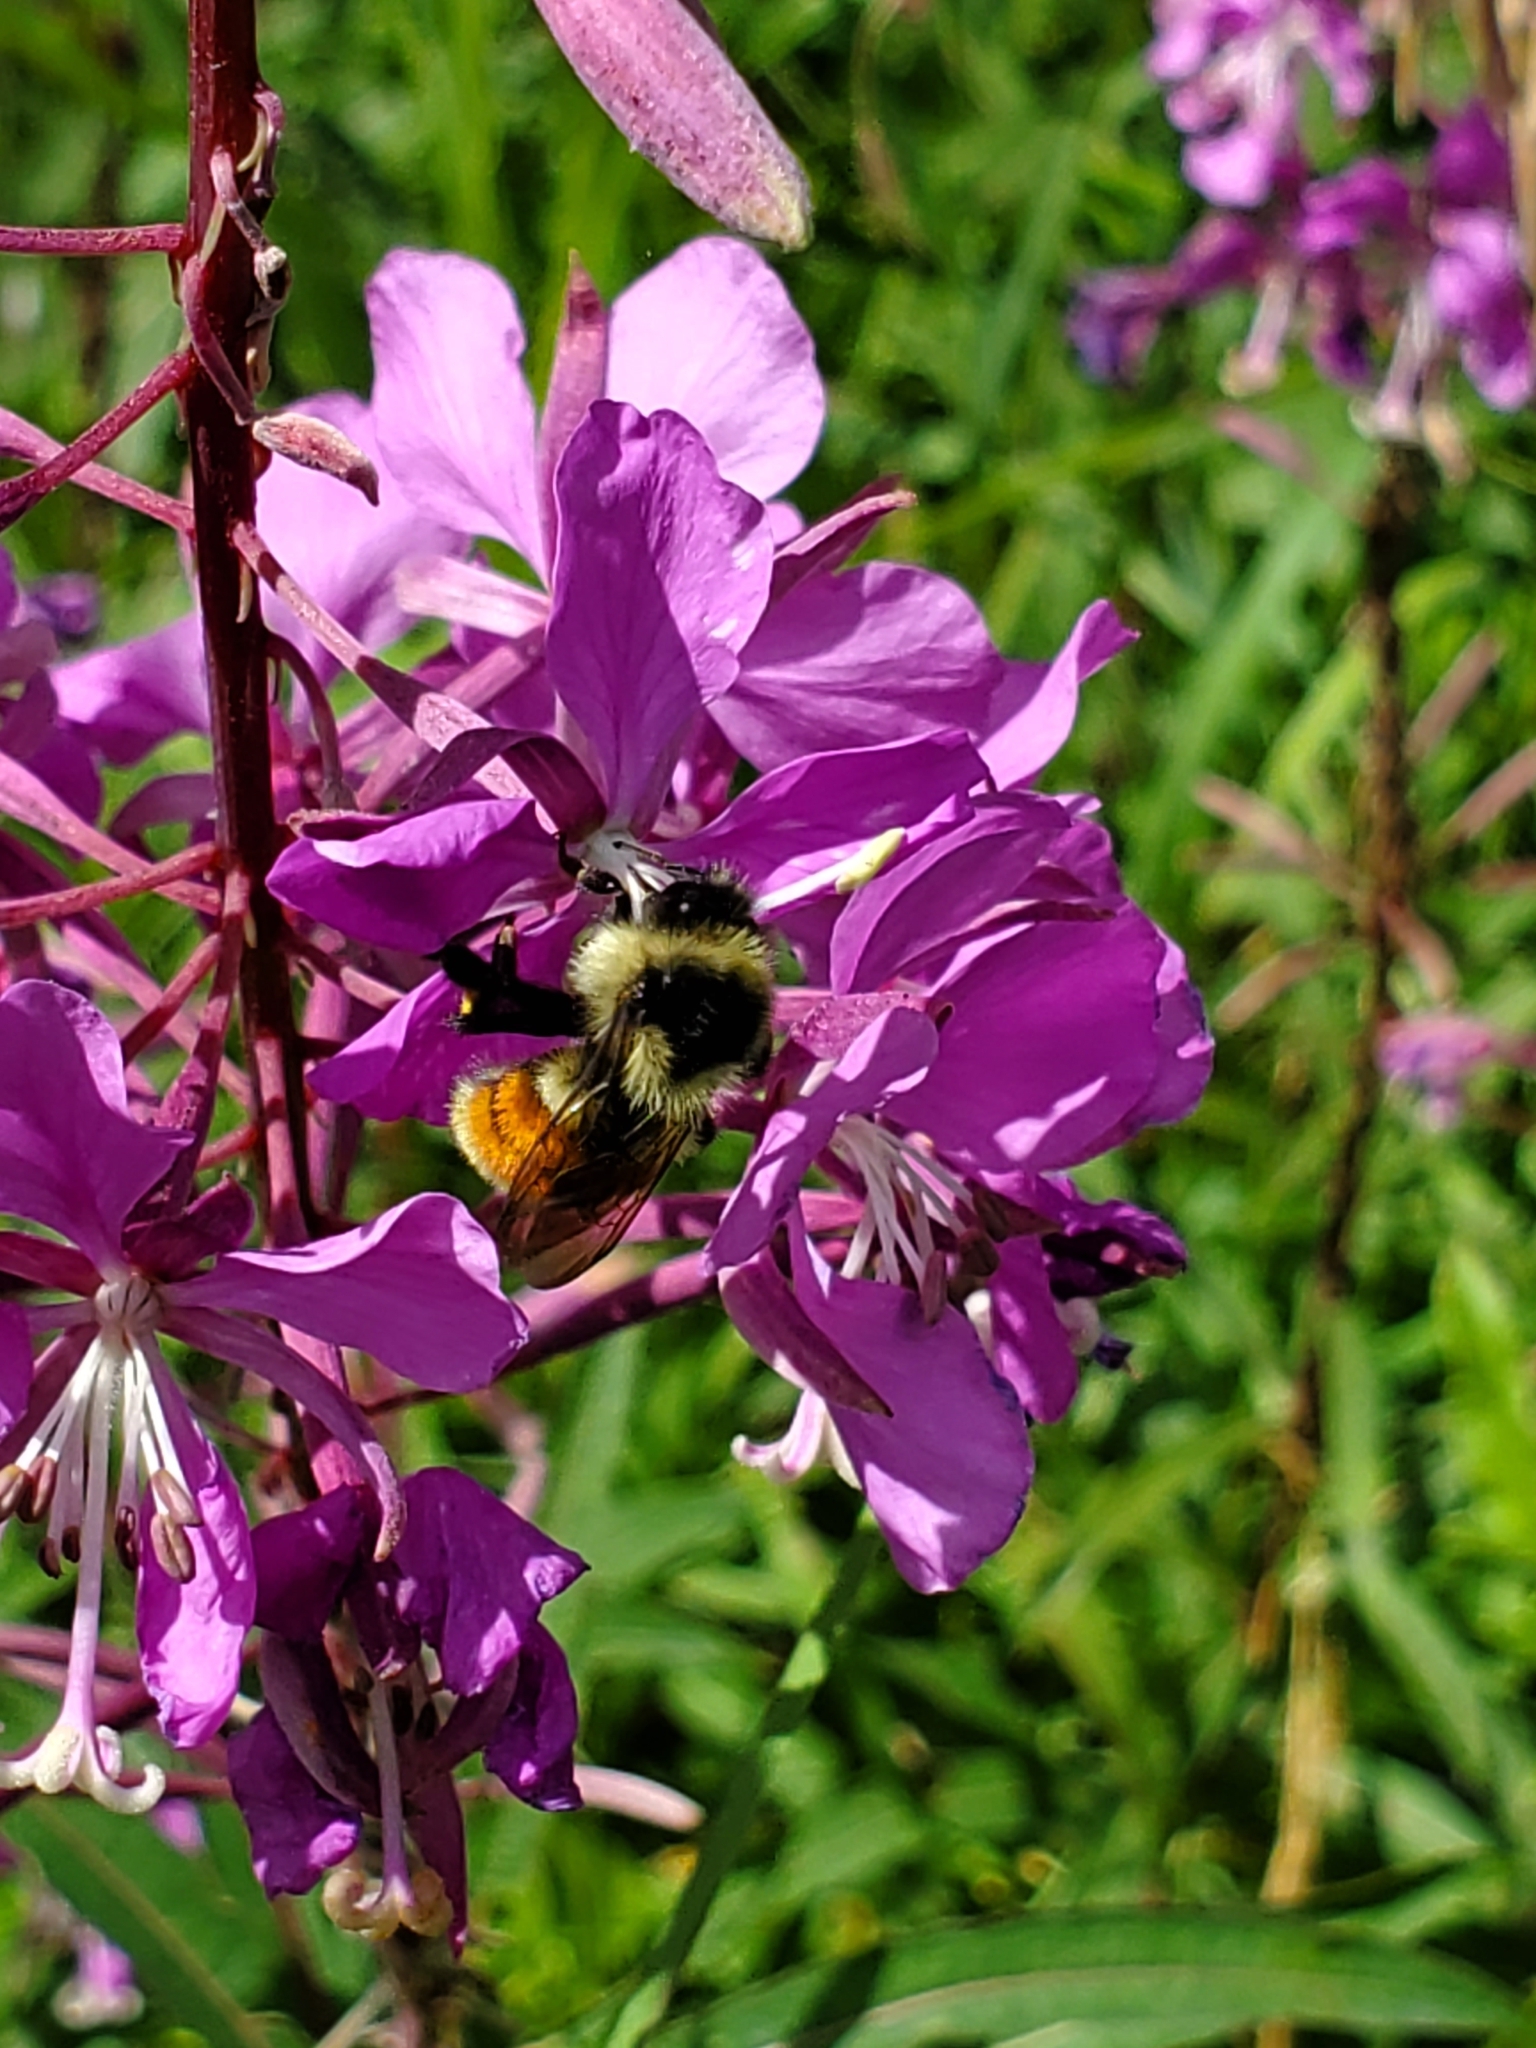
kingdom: Animalia
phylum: Arthropoda
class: Insecta
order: Hymenoptera
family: Apidae
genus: Bombus
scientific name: Bombus ternarius
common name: Tri-colored bumble bee
